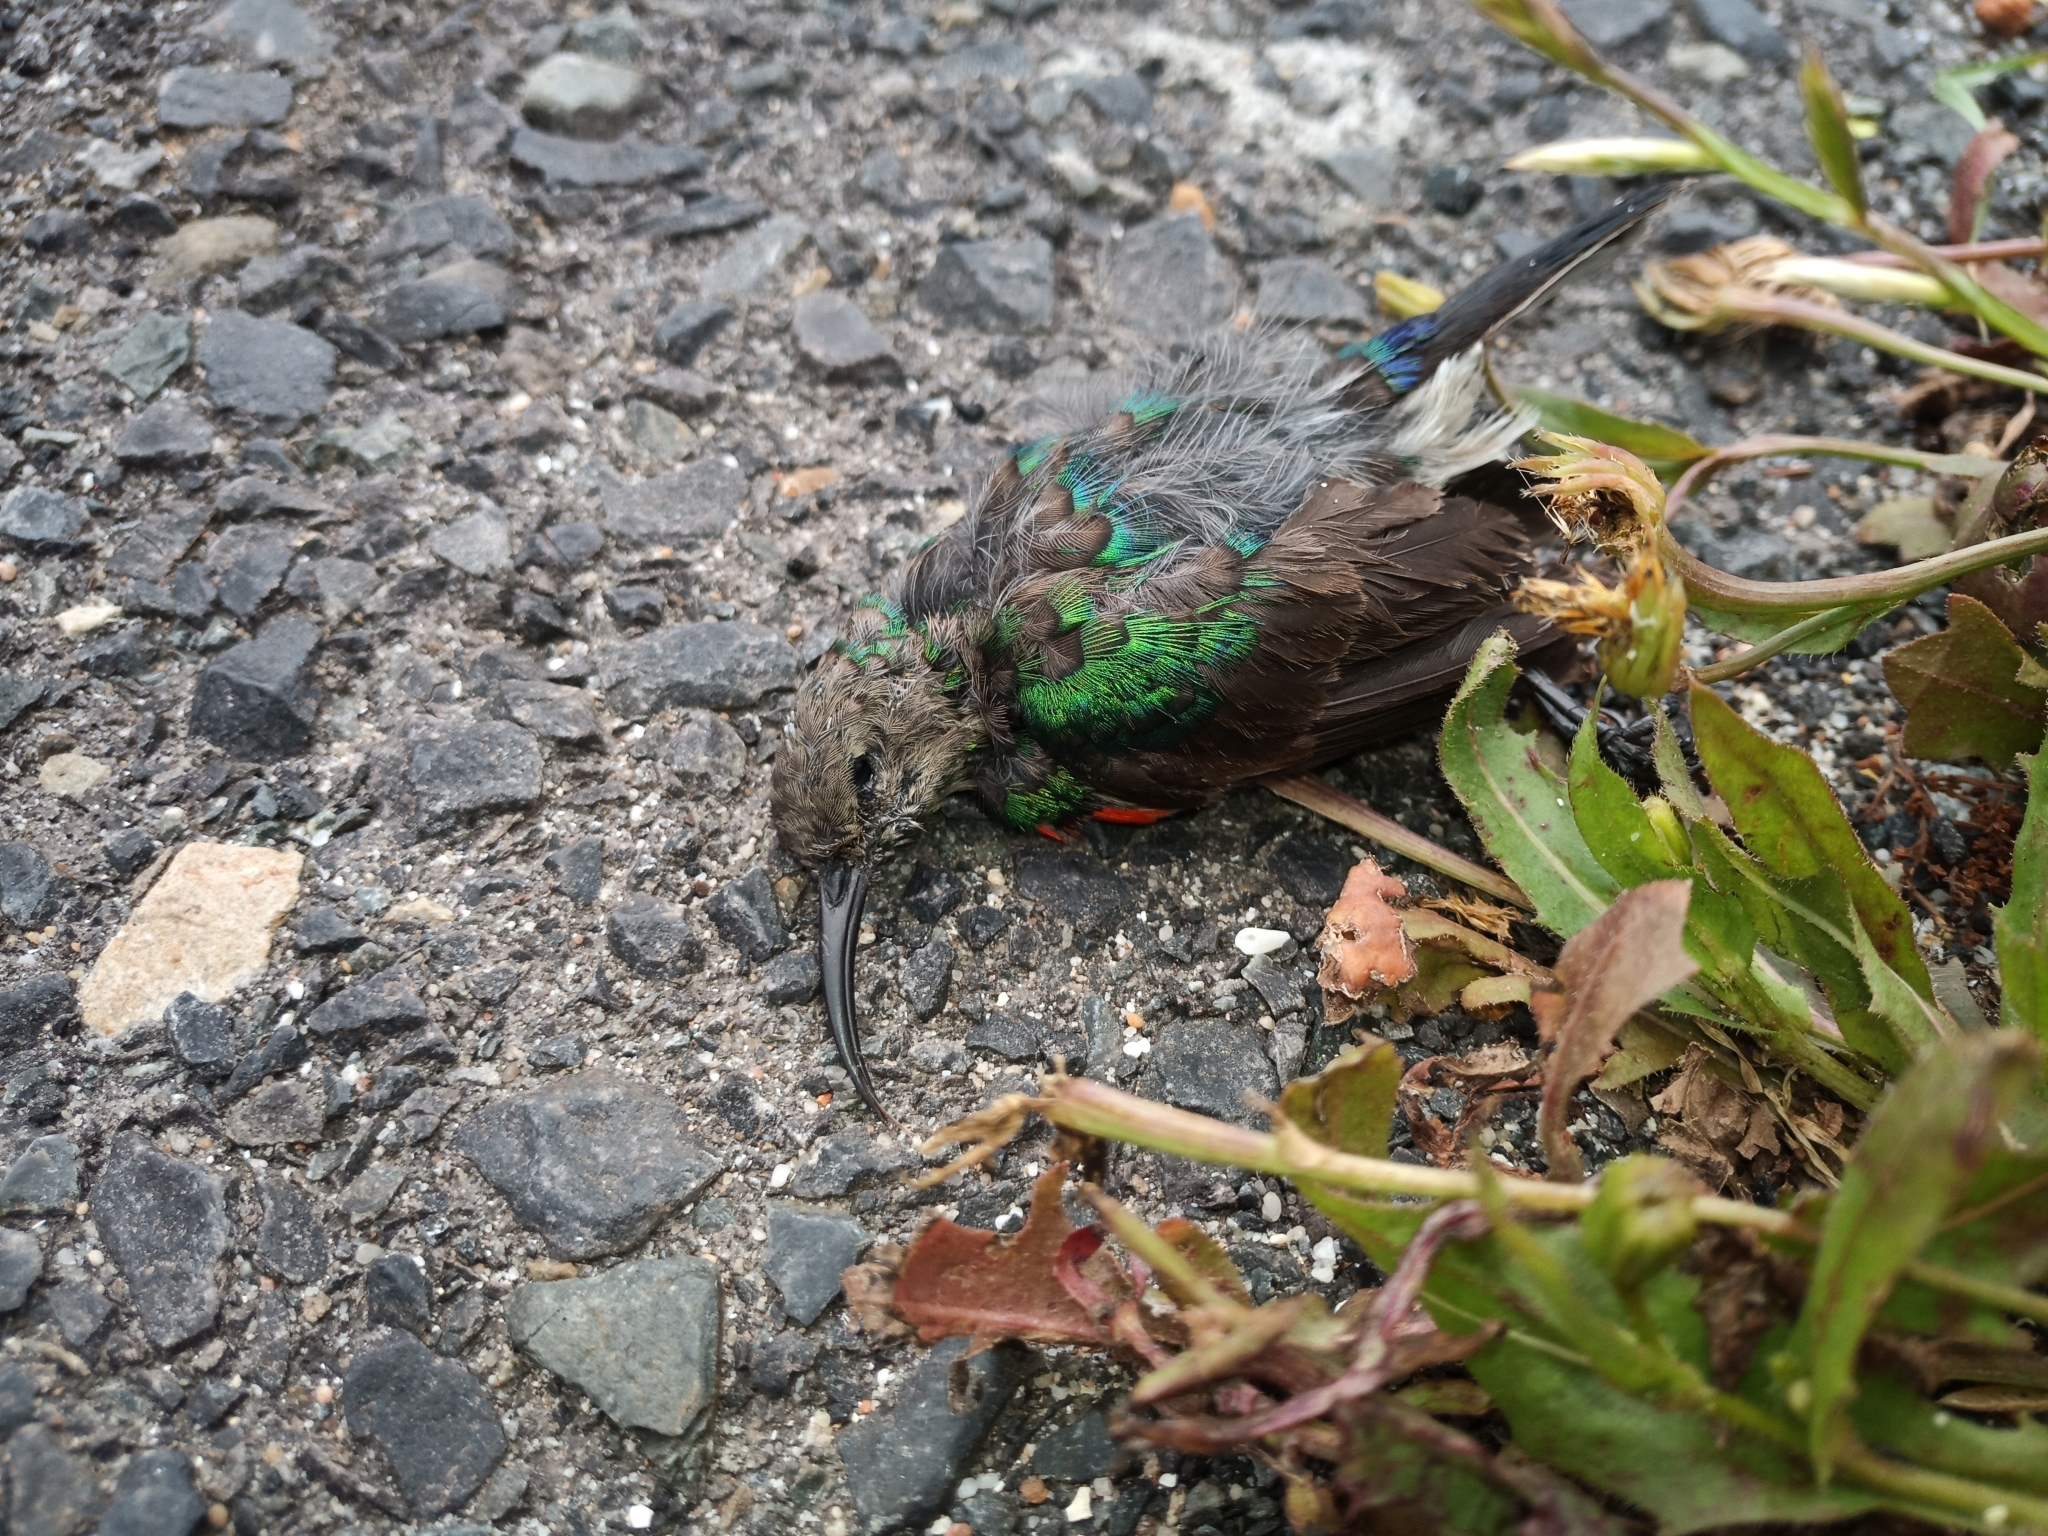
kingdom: Animalia
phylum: Chordata
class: Aves
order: Passeriformes
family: Nectariniidae
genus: Cinnyris
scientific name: Cinnyris chalybeus
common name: Southern double-collared sunbird
